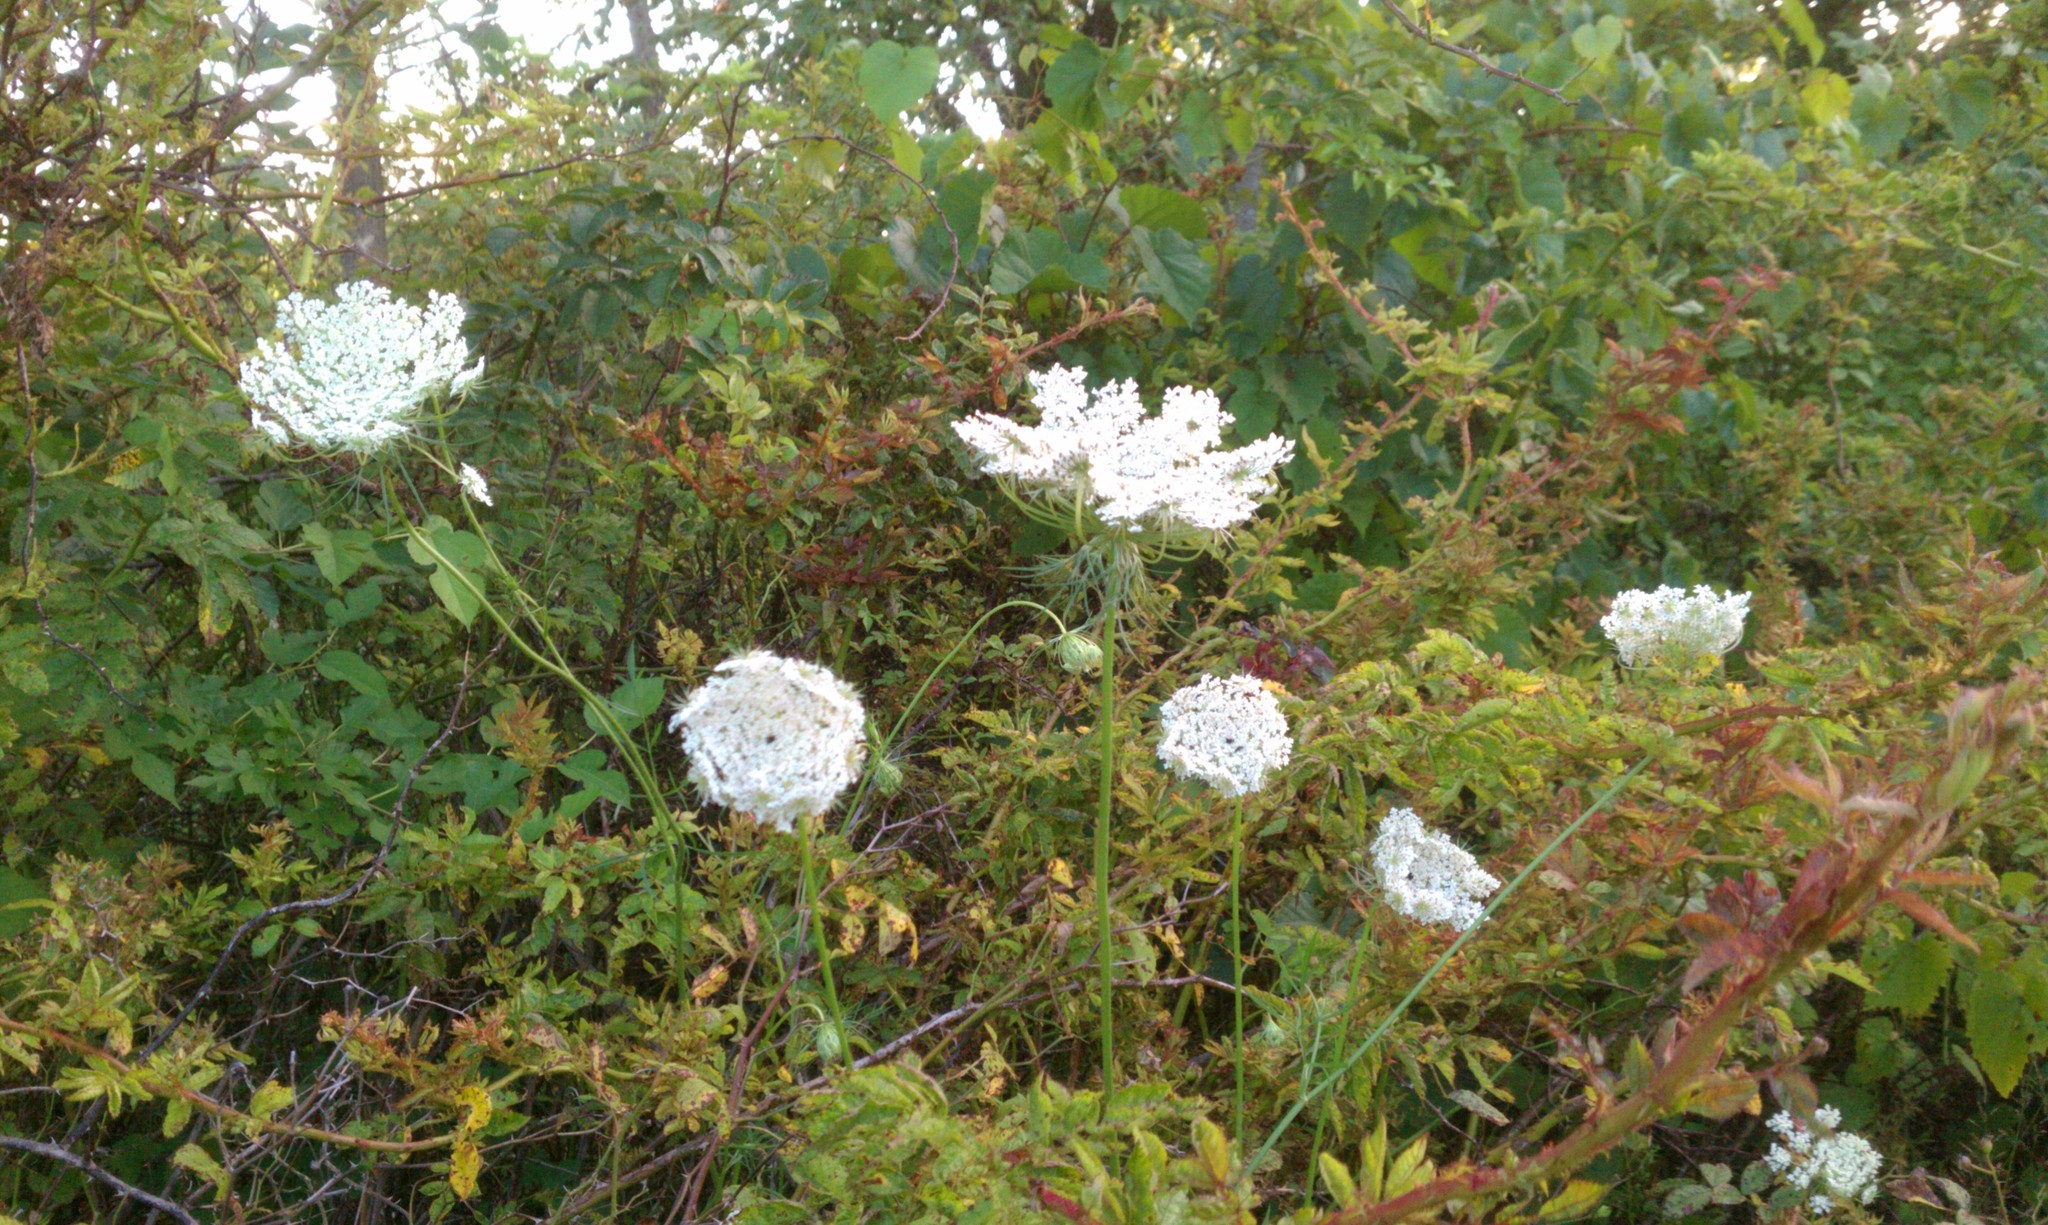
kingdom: Plantae
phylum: Tracheophyta
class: Magnoliopsida
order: Apiales
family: Apiaceae
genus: Daucus
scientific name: Daucus carota
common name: Wild carrot
